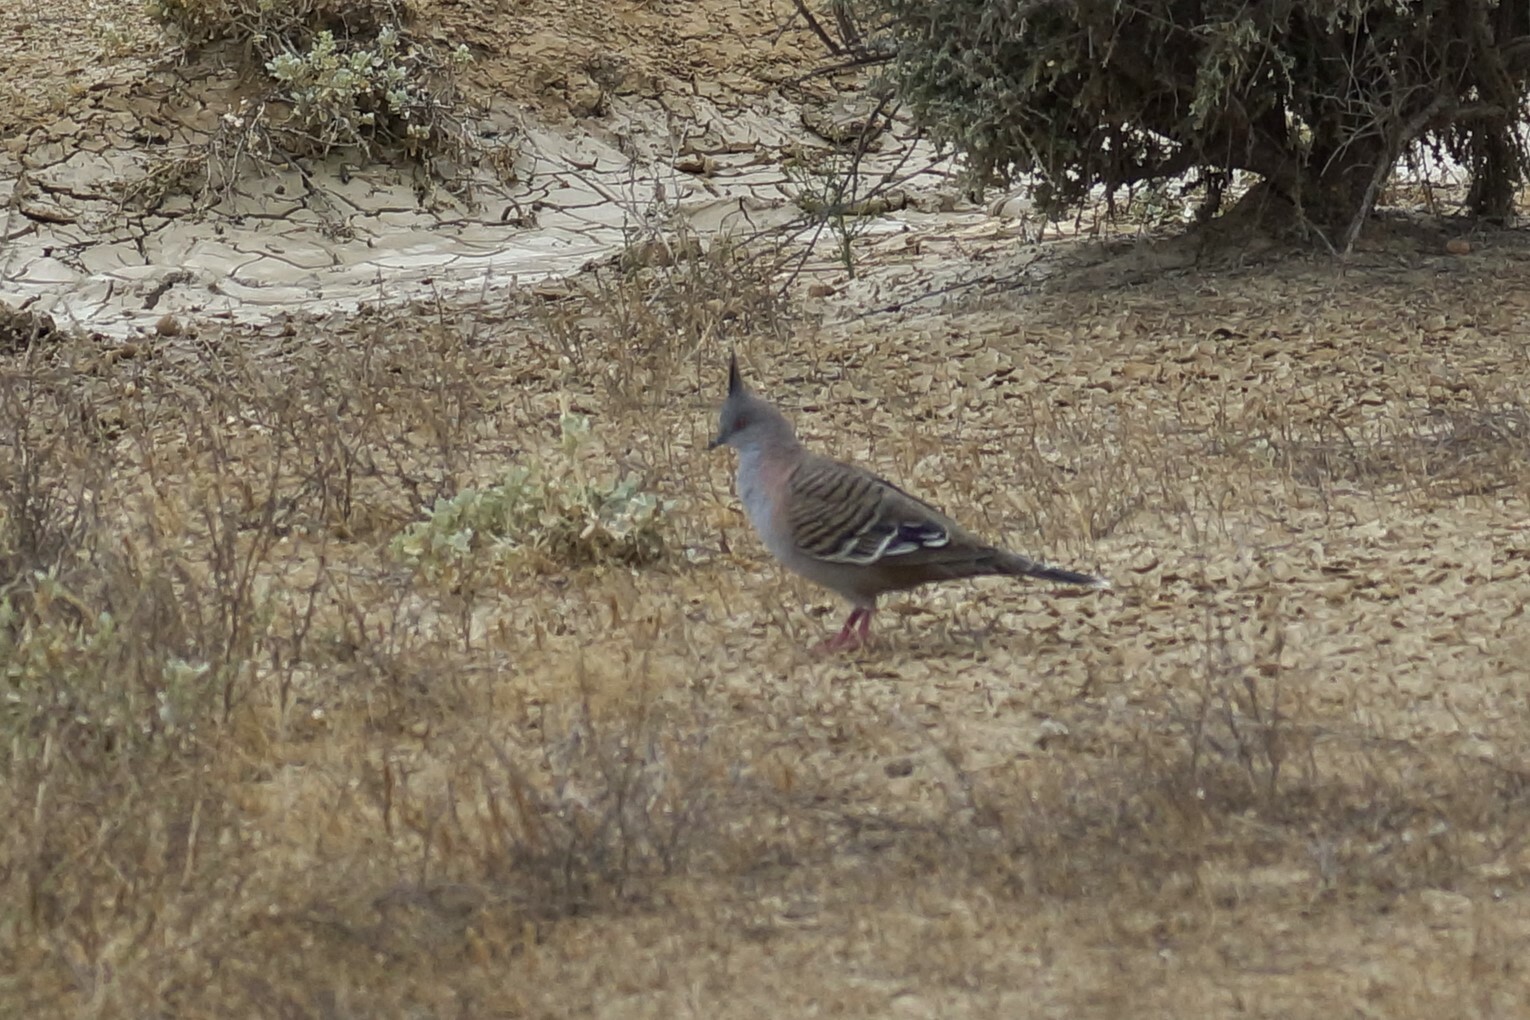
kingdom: Animalia
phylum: Chordata
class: Aves
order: Columbiformes
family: Columbidae
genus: Ocyphaps
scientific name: Ocyphaps lophotes
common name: Crested pigeon
